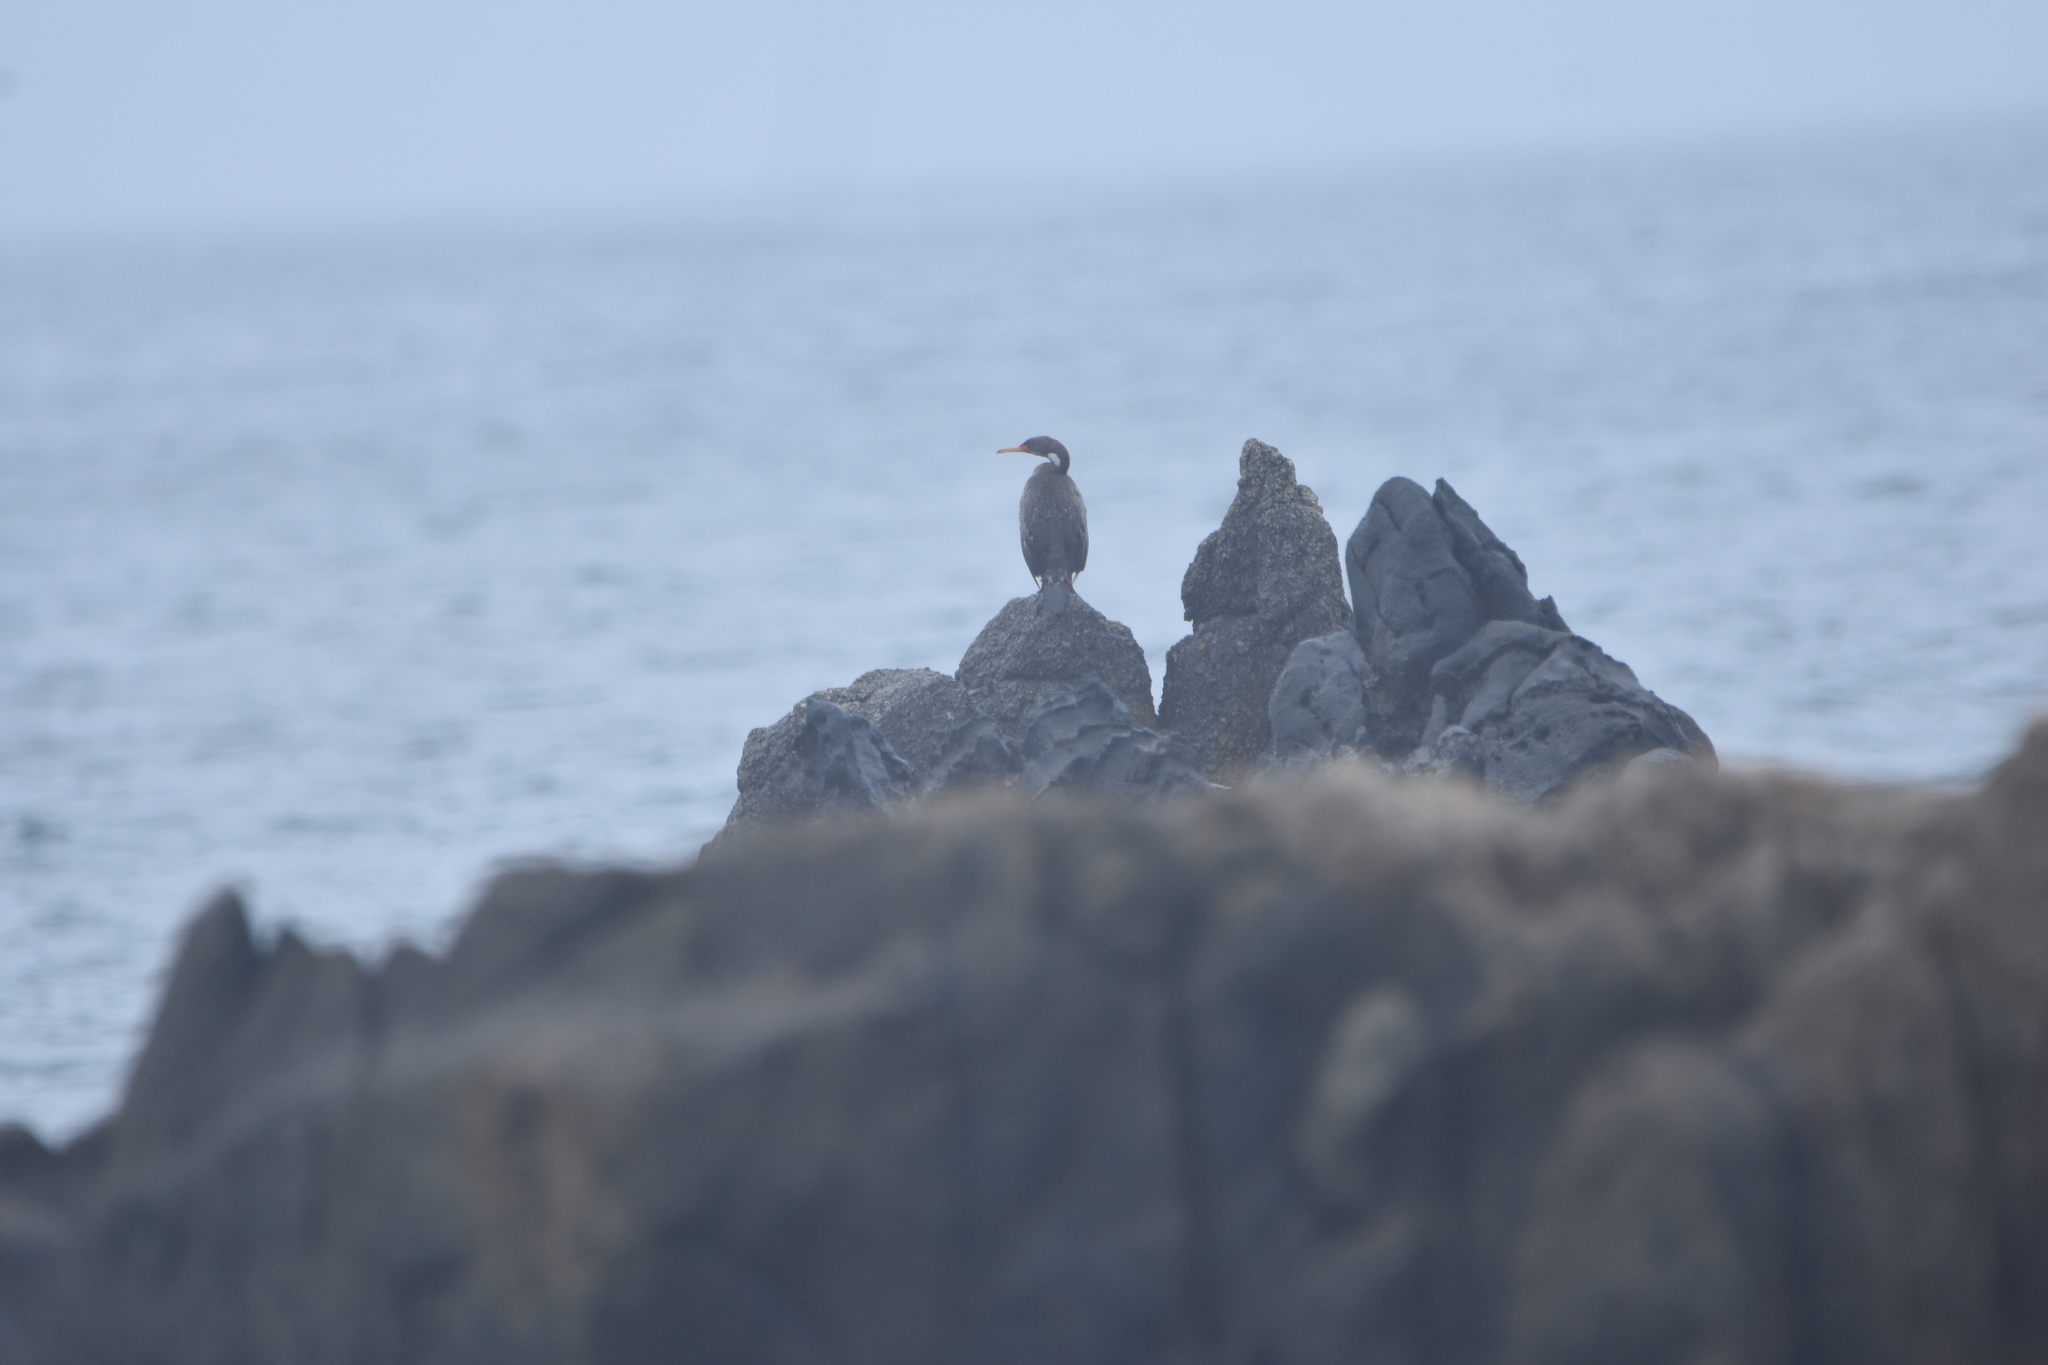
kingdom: Animalia
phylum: Chordata
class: Aves
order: Suliformes
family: Phalacrocoracidae
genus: Phalacrocorax
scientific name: Phalacrocorax gaimardi
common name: Red-legged cormorant
